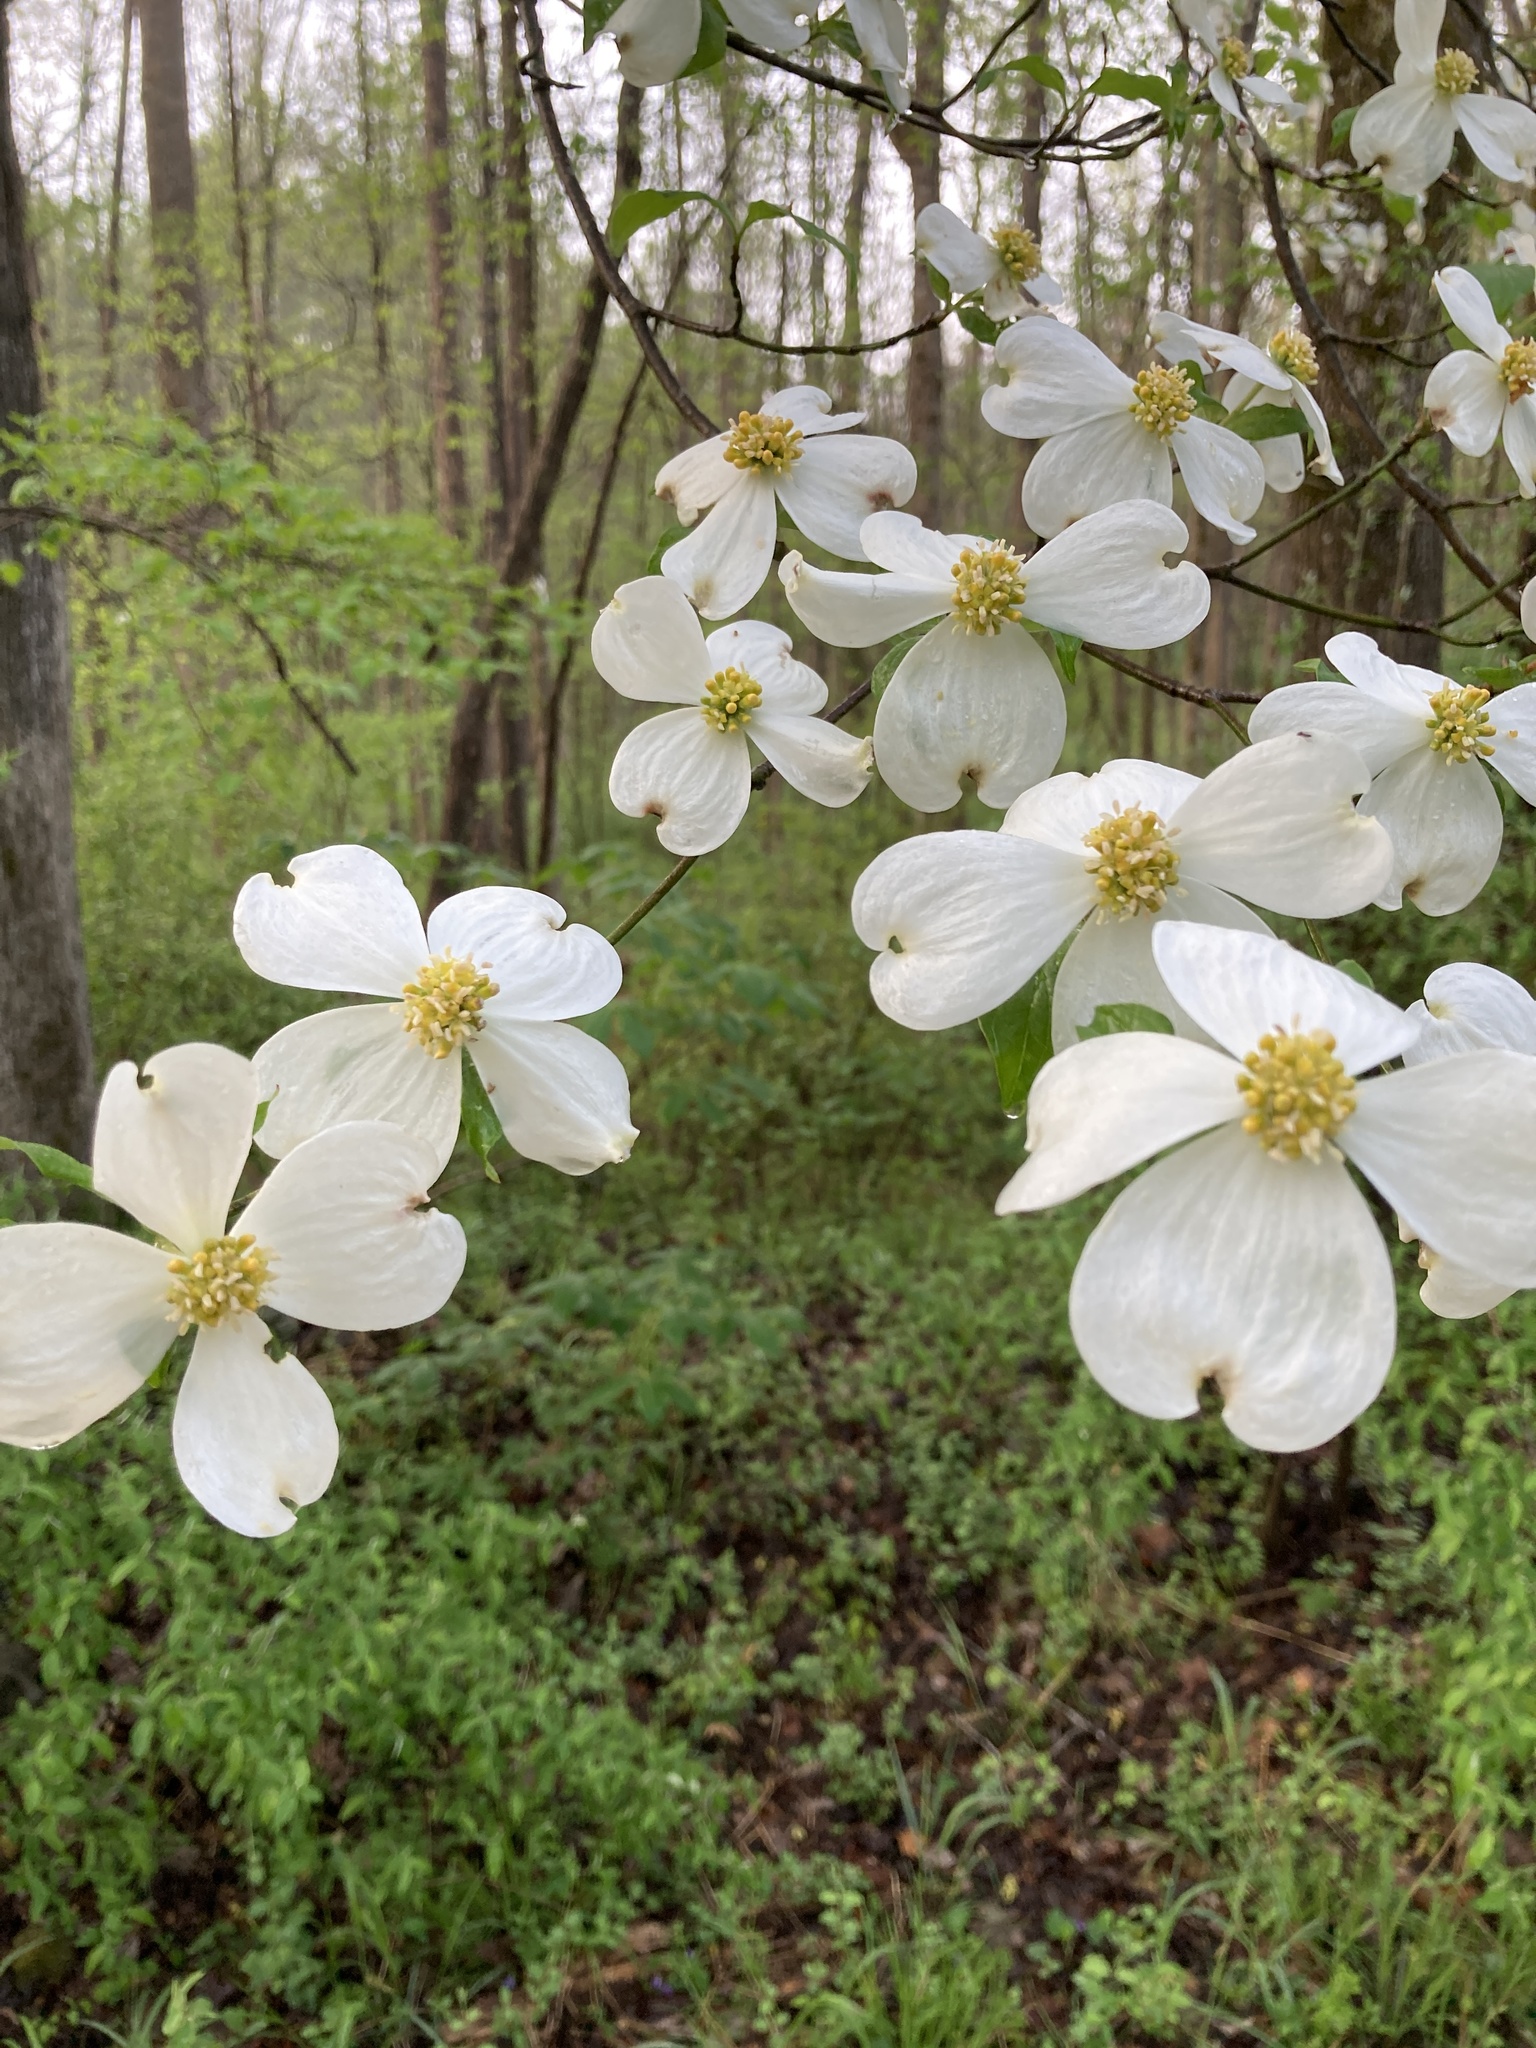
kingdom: Plantae
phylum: Tracheophyta
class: Magnoliopsida
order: Cornales
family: Cornaceae
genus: Cornus
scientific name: Cornus florida
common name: Flowering dogwood
